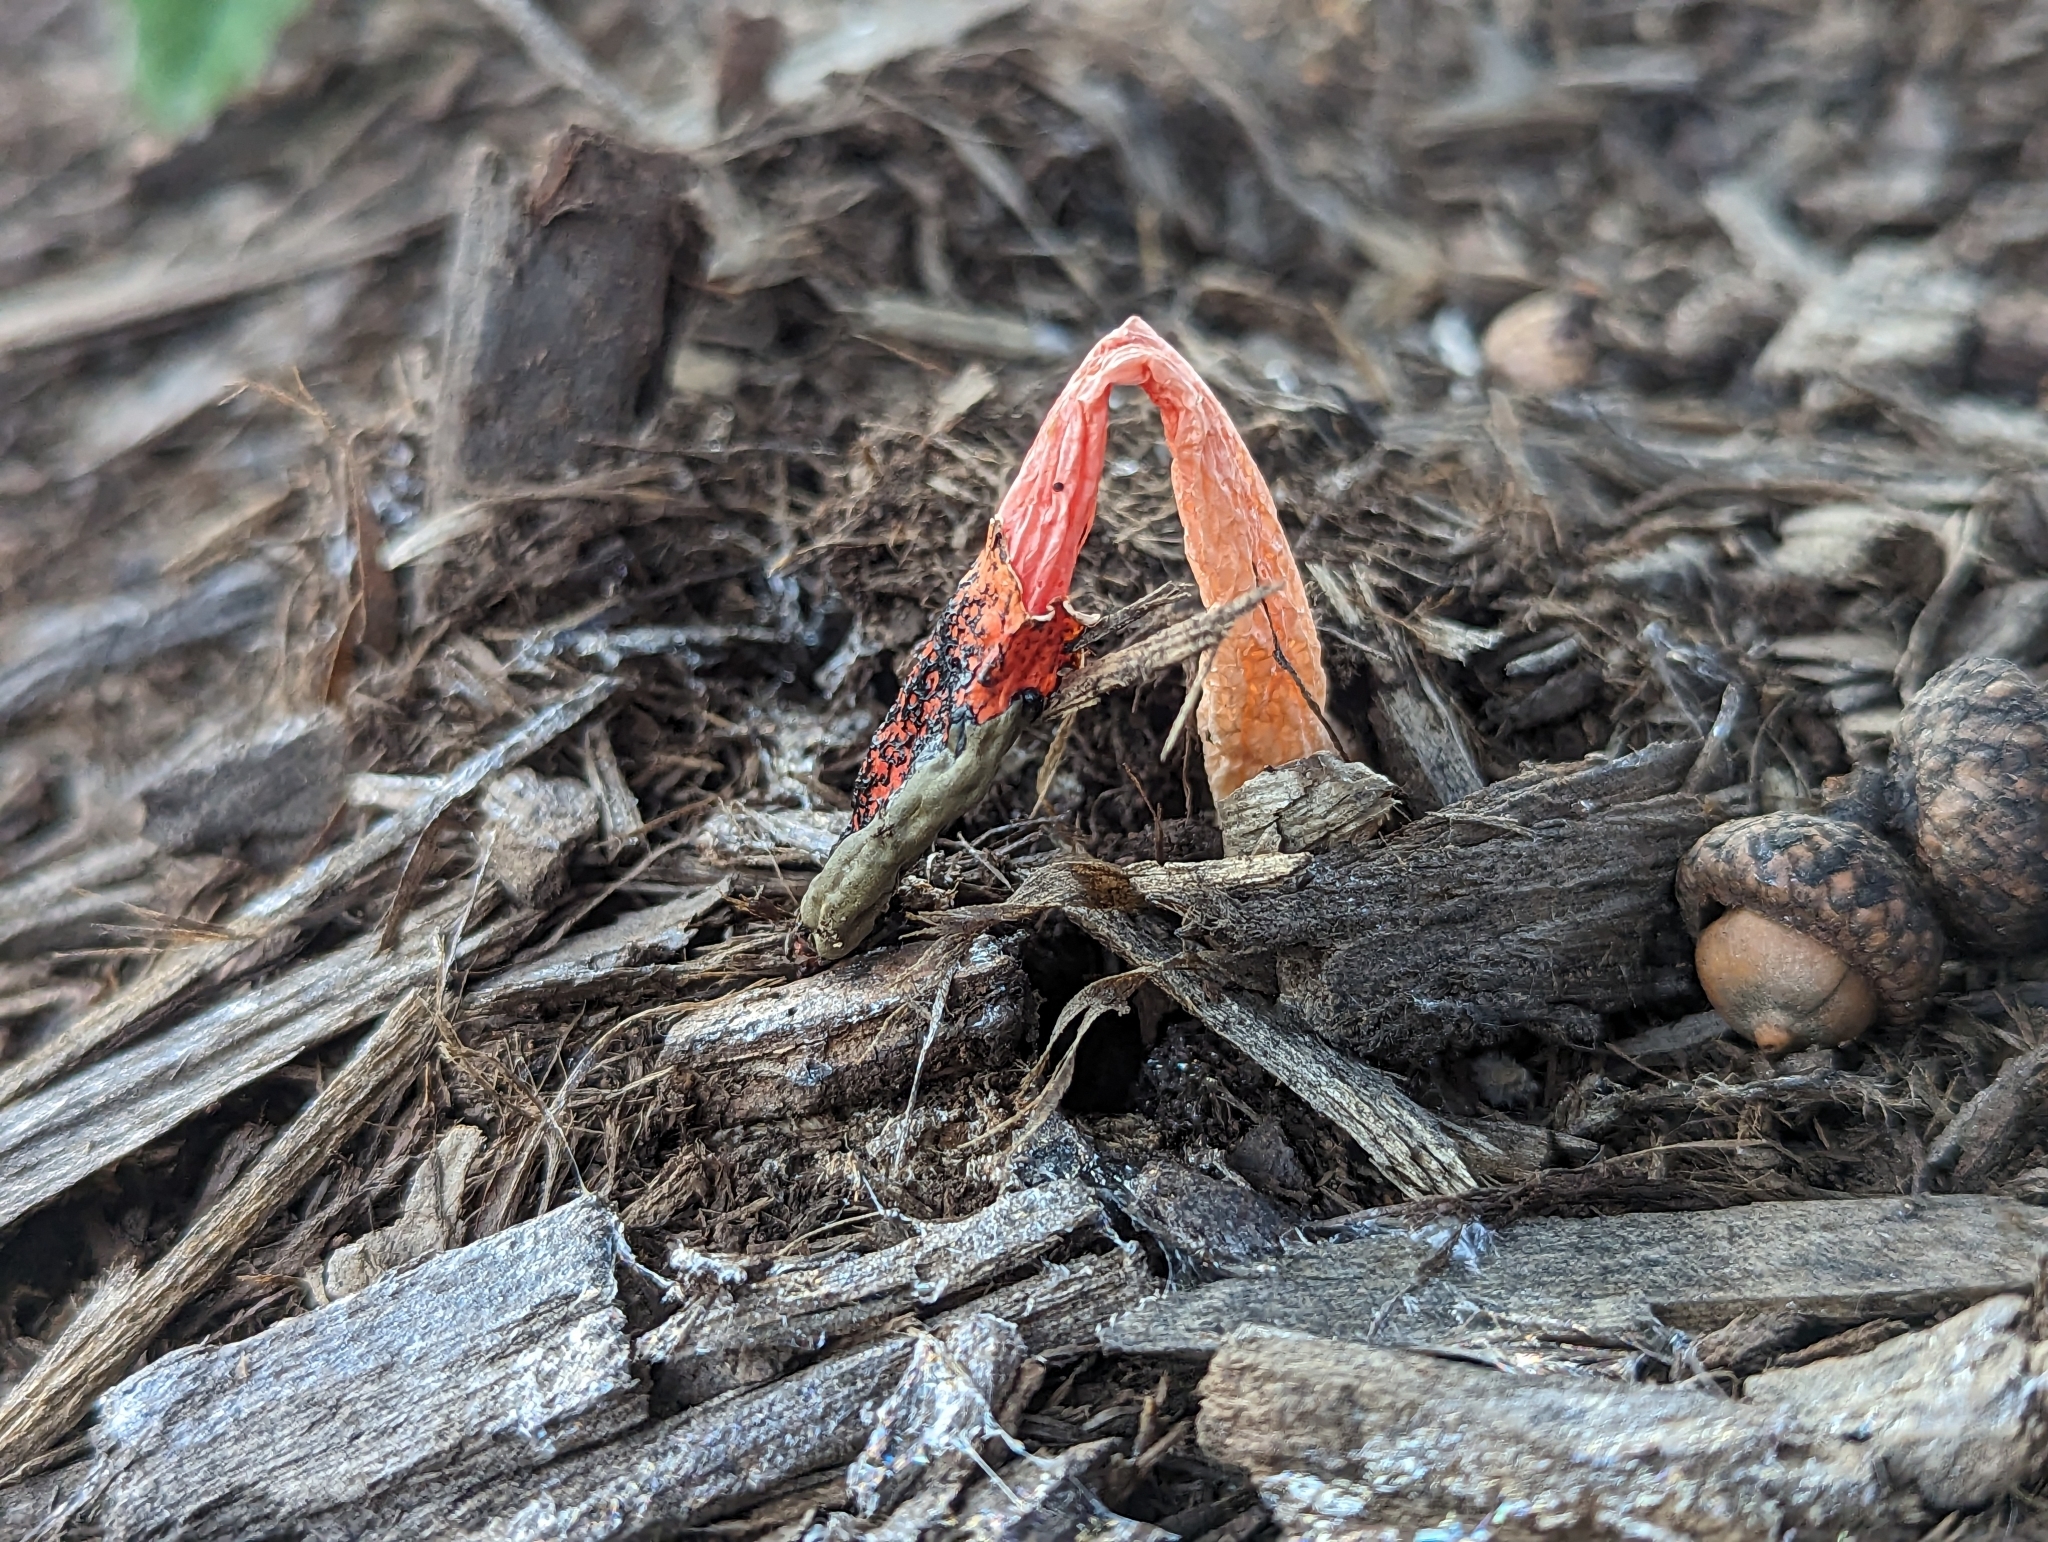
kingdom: Fungi
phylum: Basidiomycota
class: Agaricomycetes
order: Phallales
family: Phallaceae
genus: Phallus
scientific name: Phallus rugulosus
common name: Wrinkly stinkhorn
